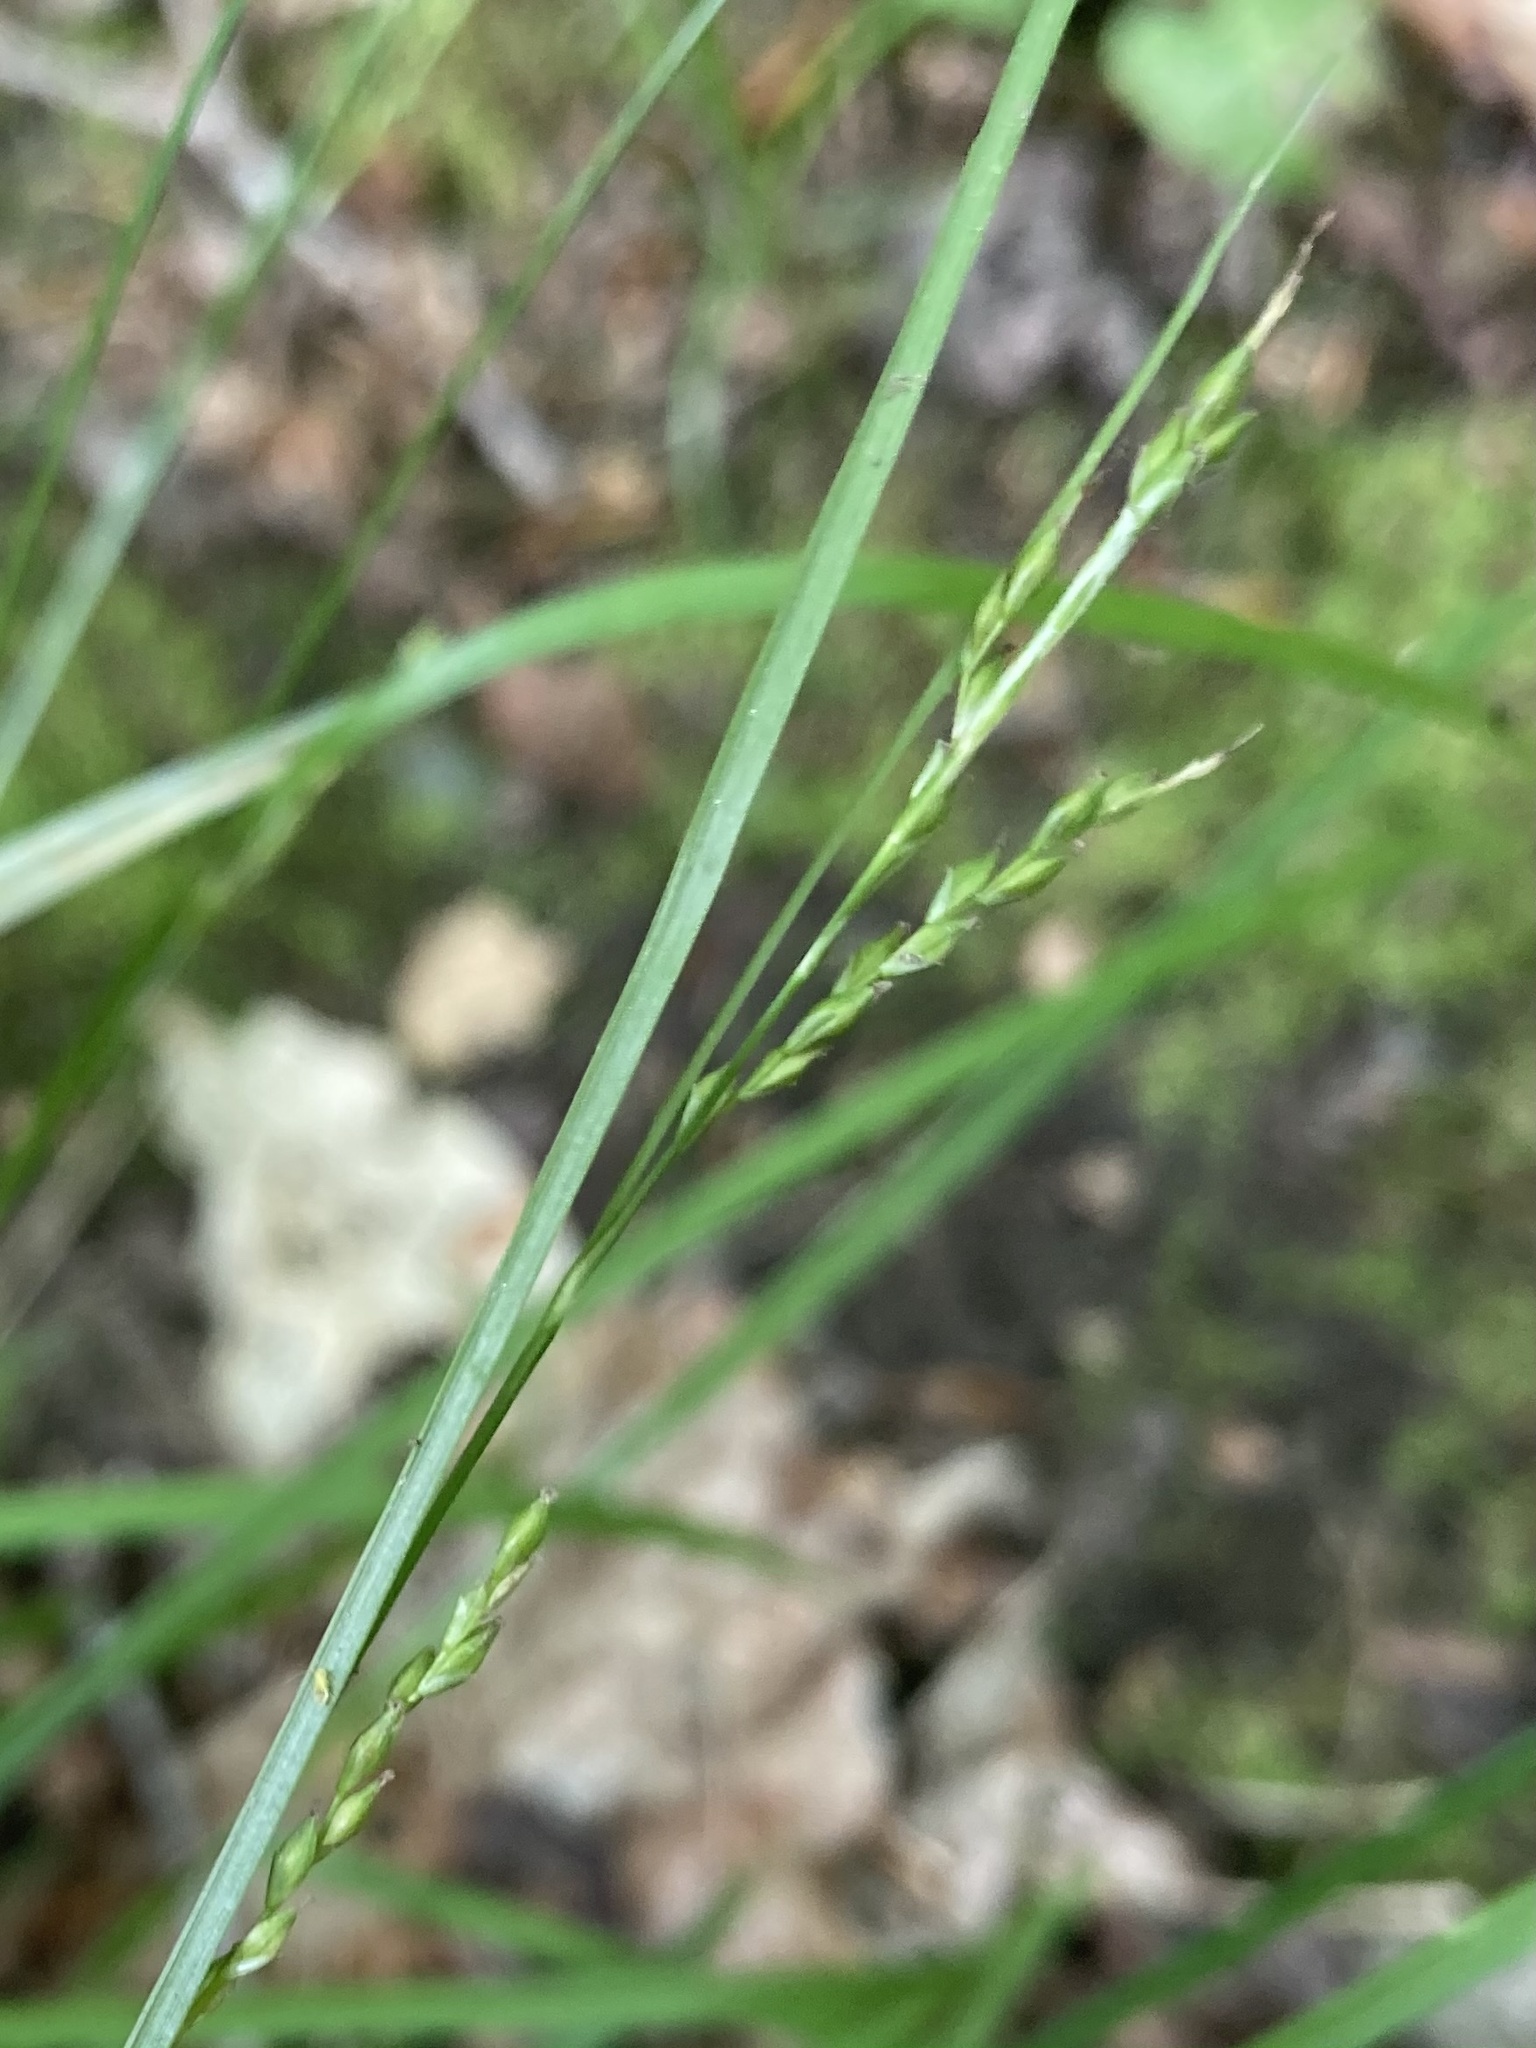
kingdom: Plantae
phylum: Tracheophyta
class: Liliopsida
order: Poales
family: Cyperaceae
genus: Carex
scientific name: Carex debilis
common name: White-edge sedge
